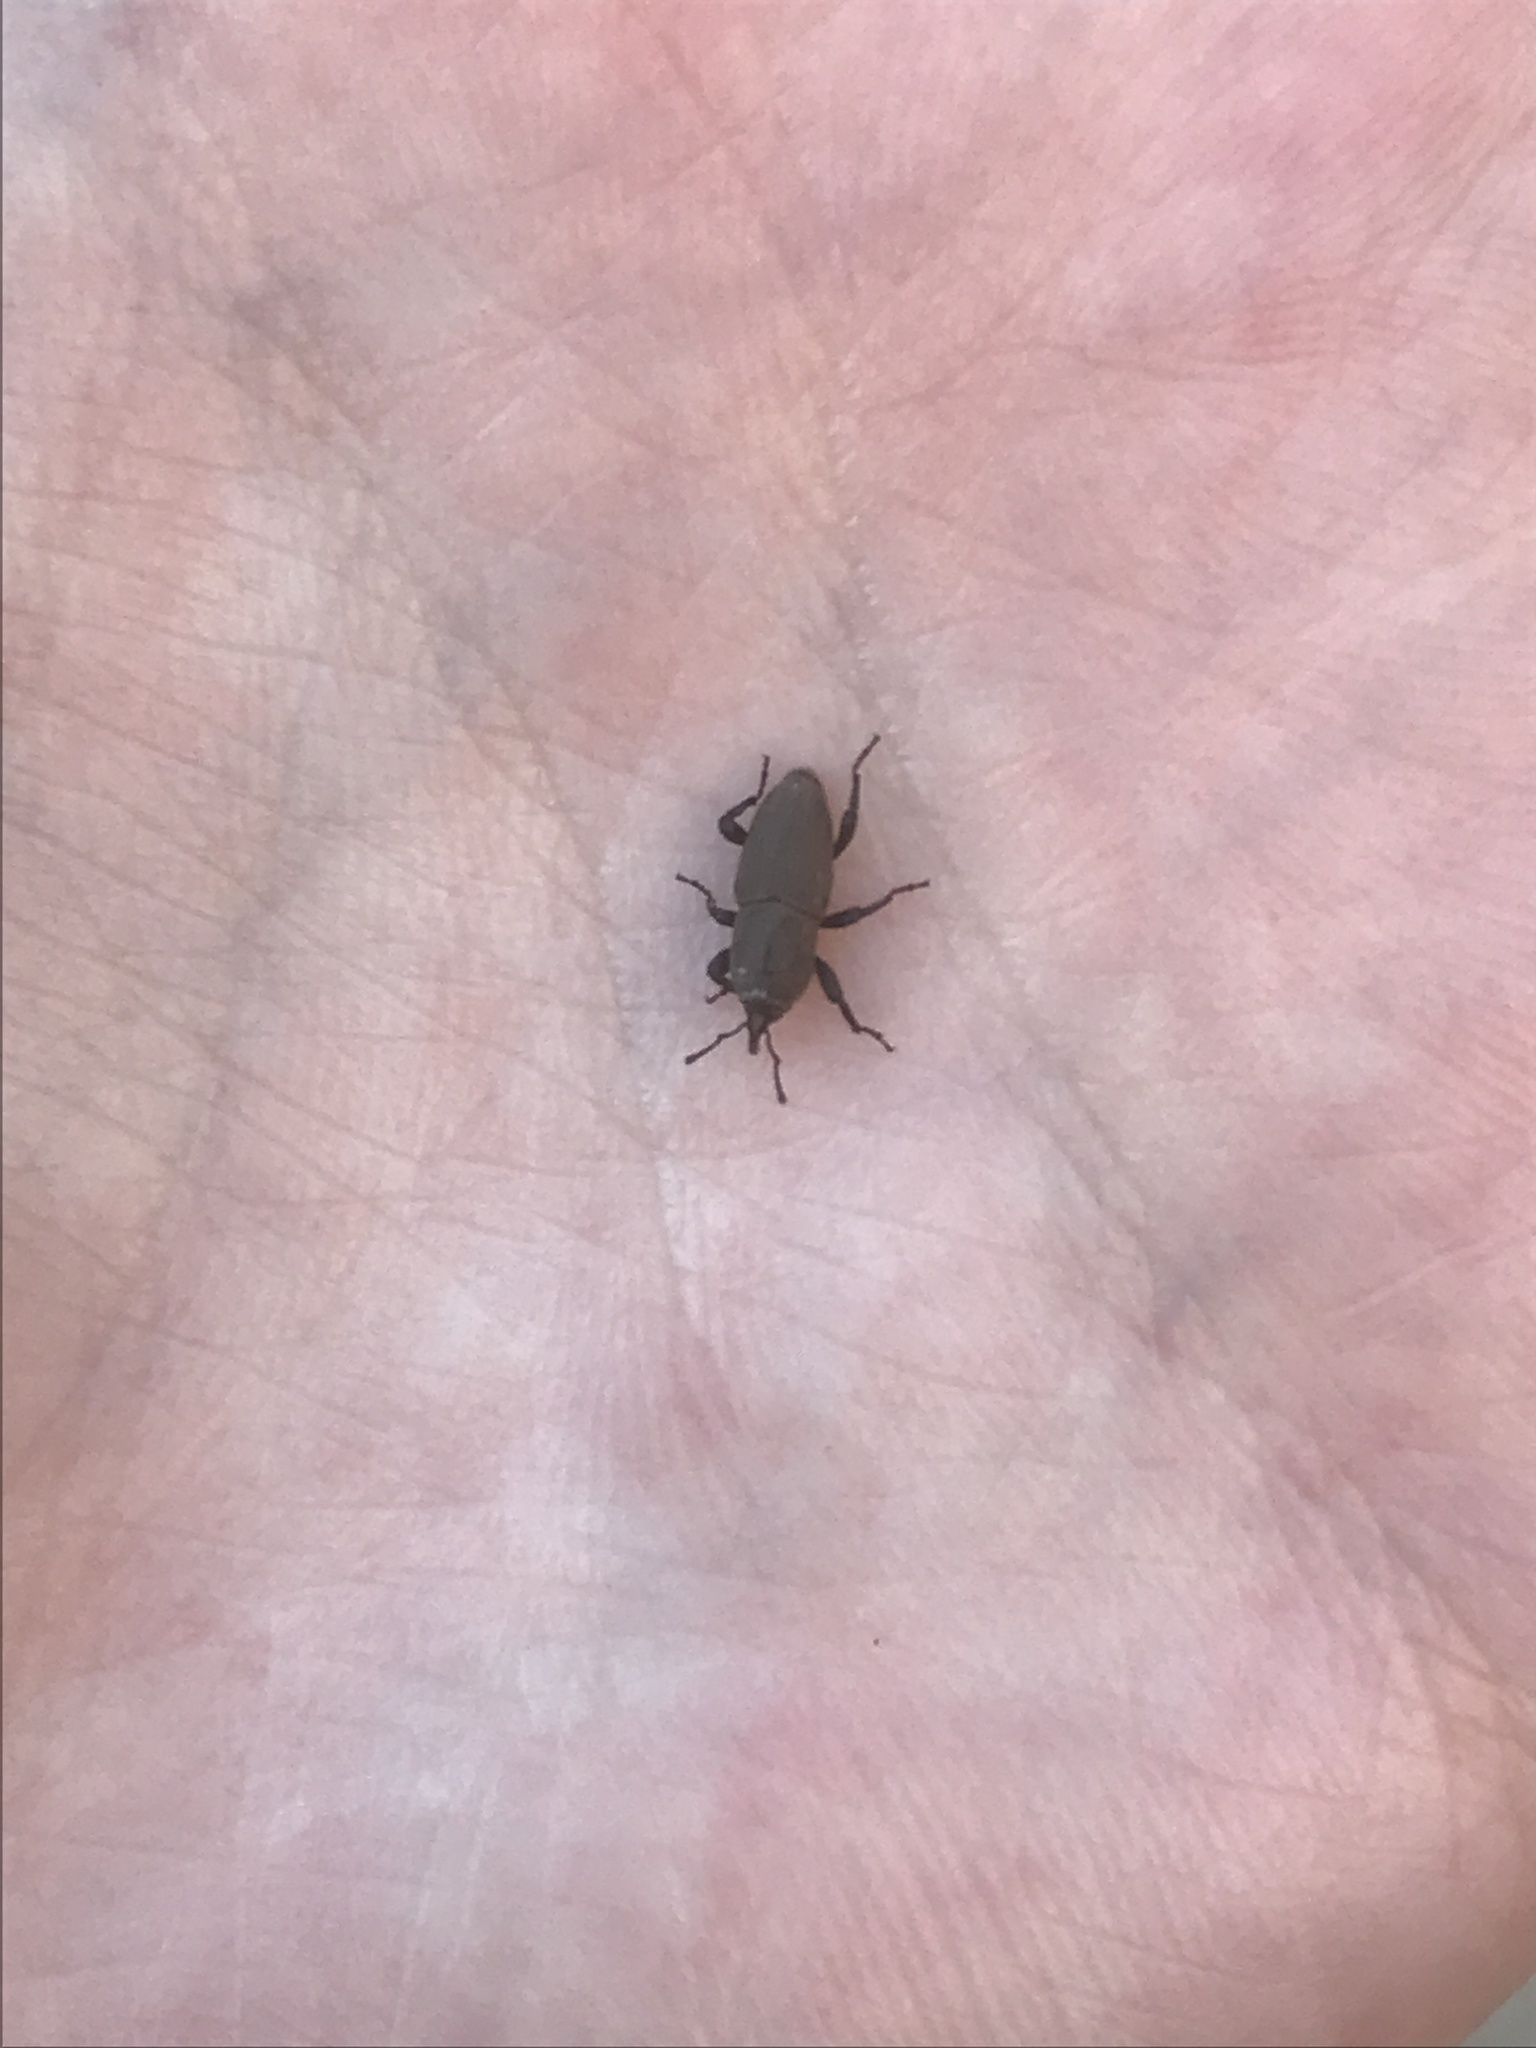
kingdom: Animalia
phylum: Arthropoda
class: Insecta
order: Coleoptera
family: Dryophthoridae
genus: Sphenophorus
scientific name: Sphenophorus coesifrons
